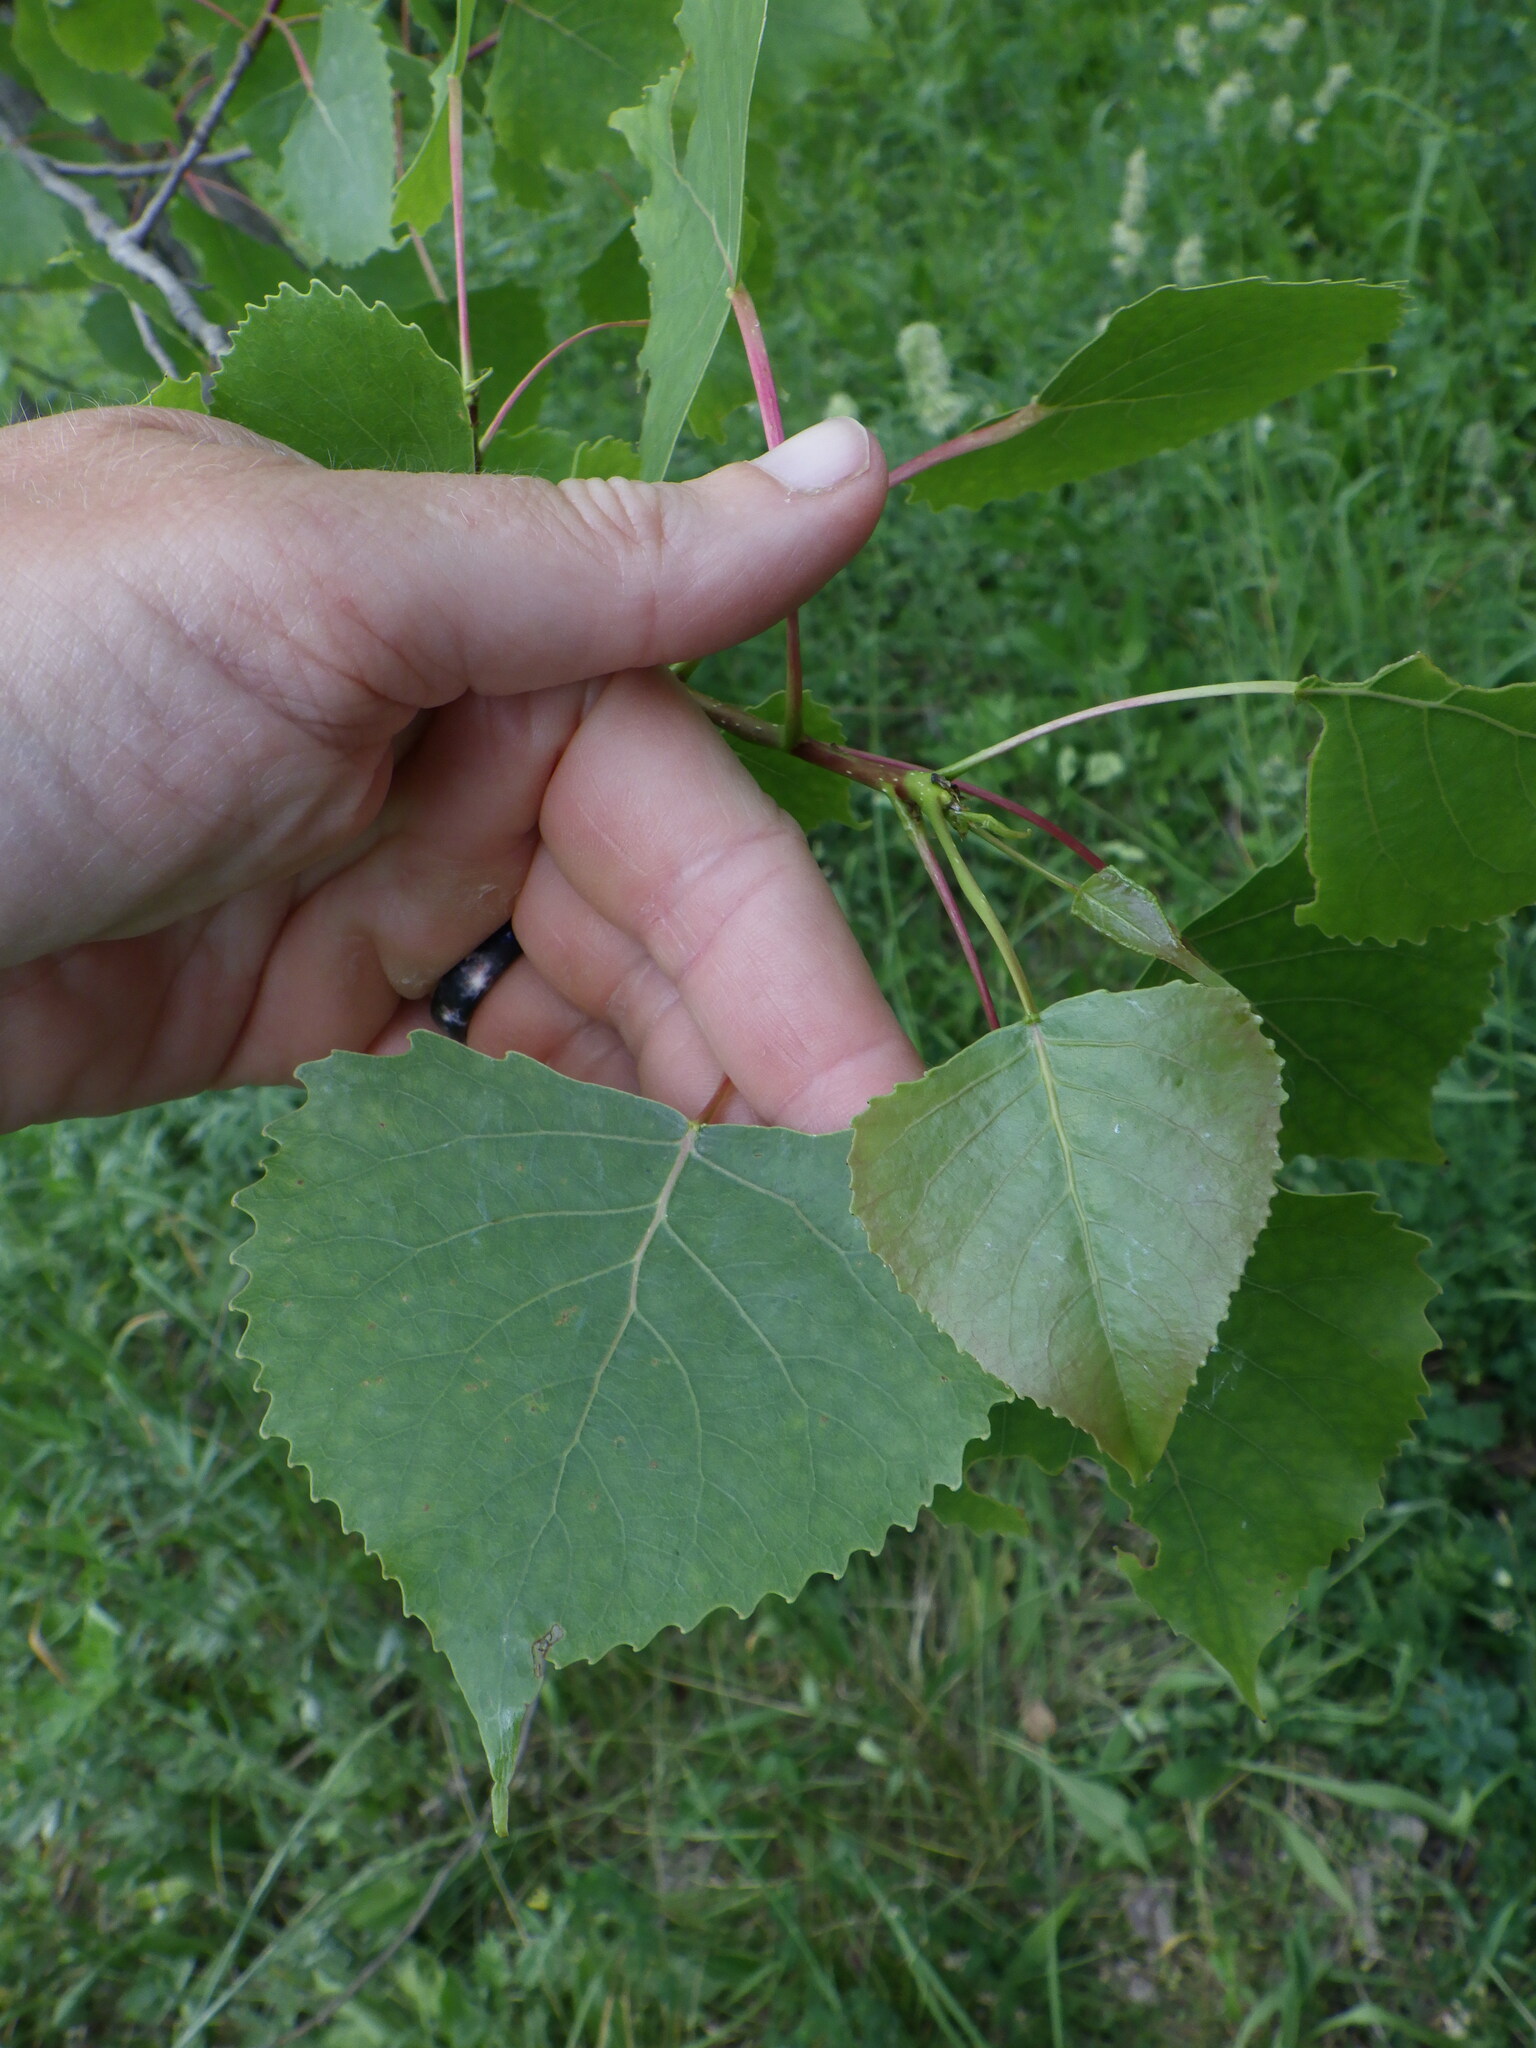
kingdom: Plantae
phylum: Tracheophyta
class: Magnoliopsida
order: Malpighiales
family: Salicaceae
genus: Populus
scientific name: Populus deltoides
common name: Eastern cottonwood
